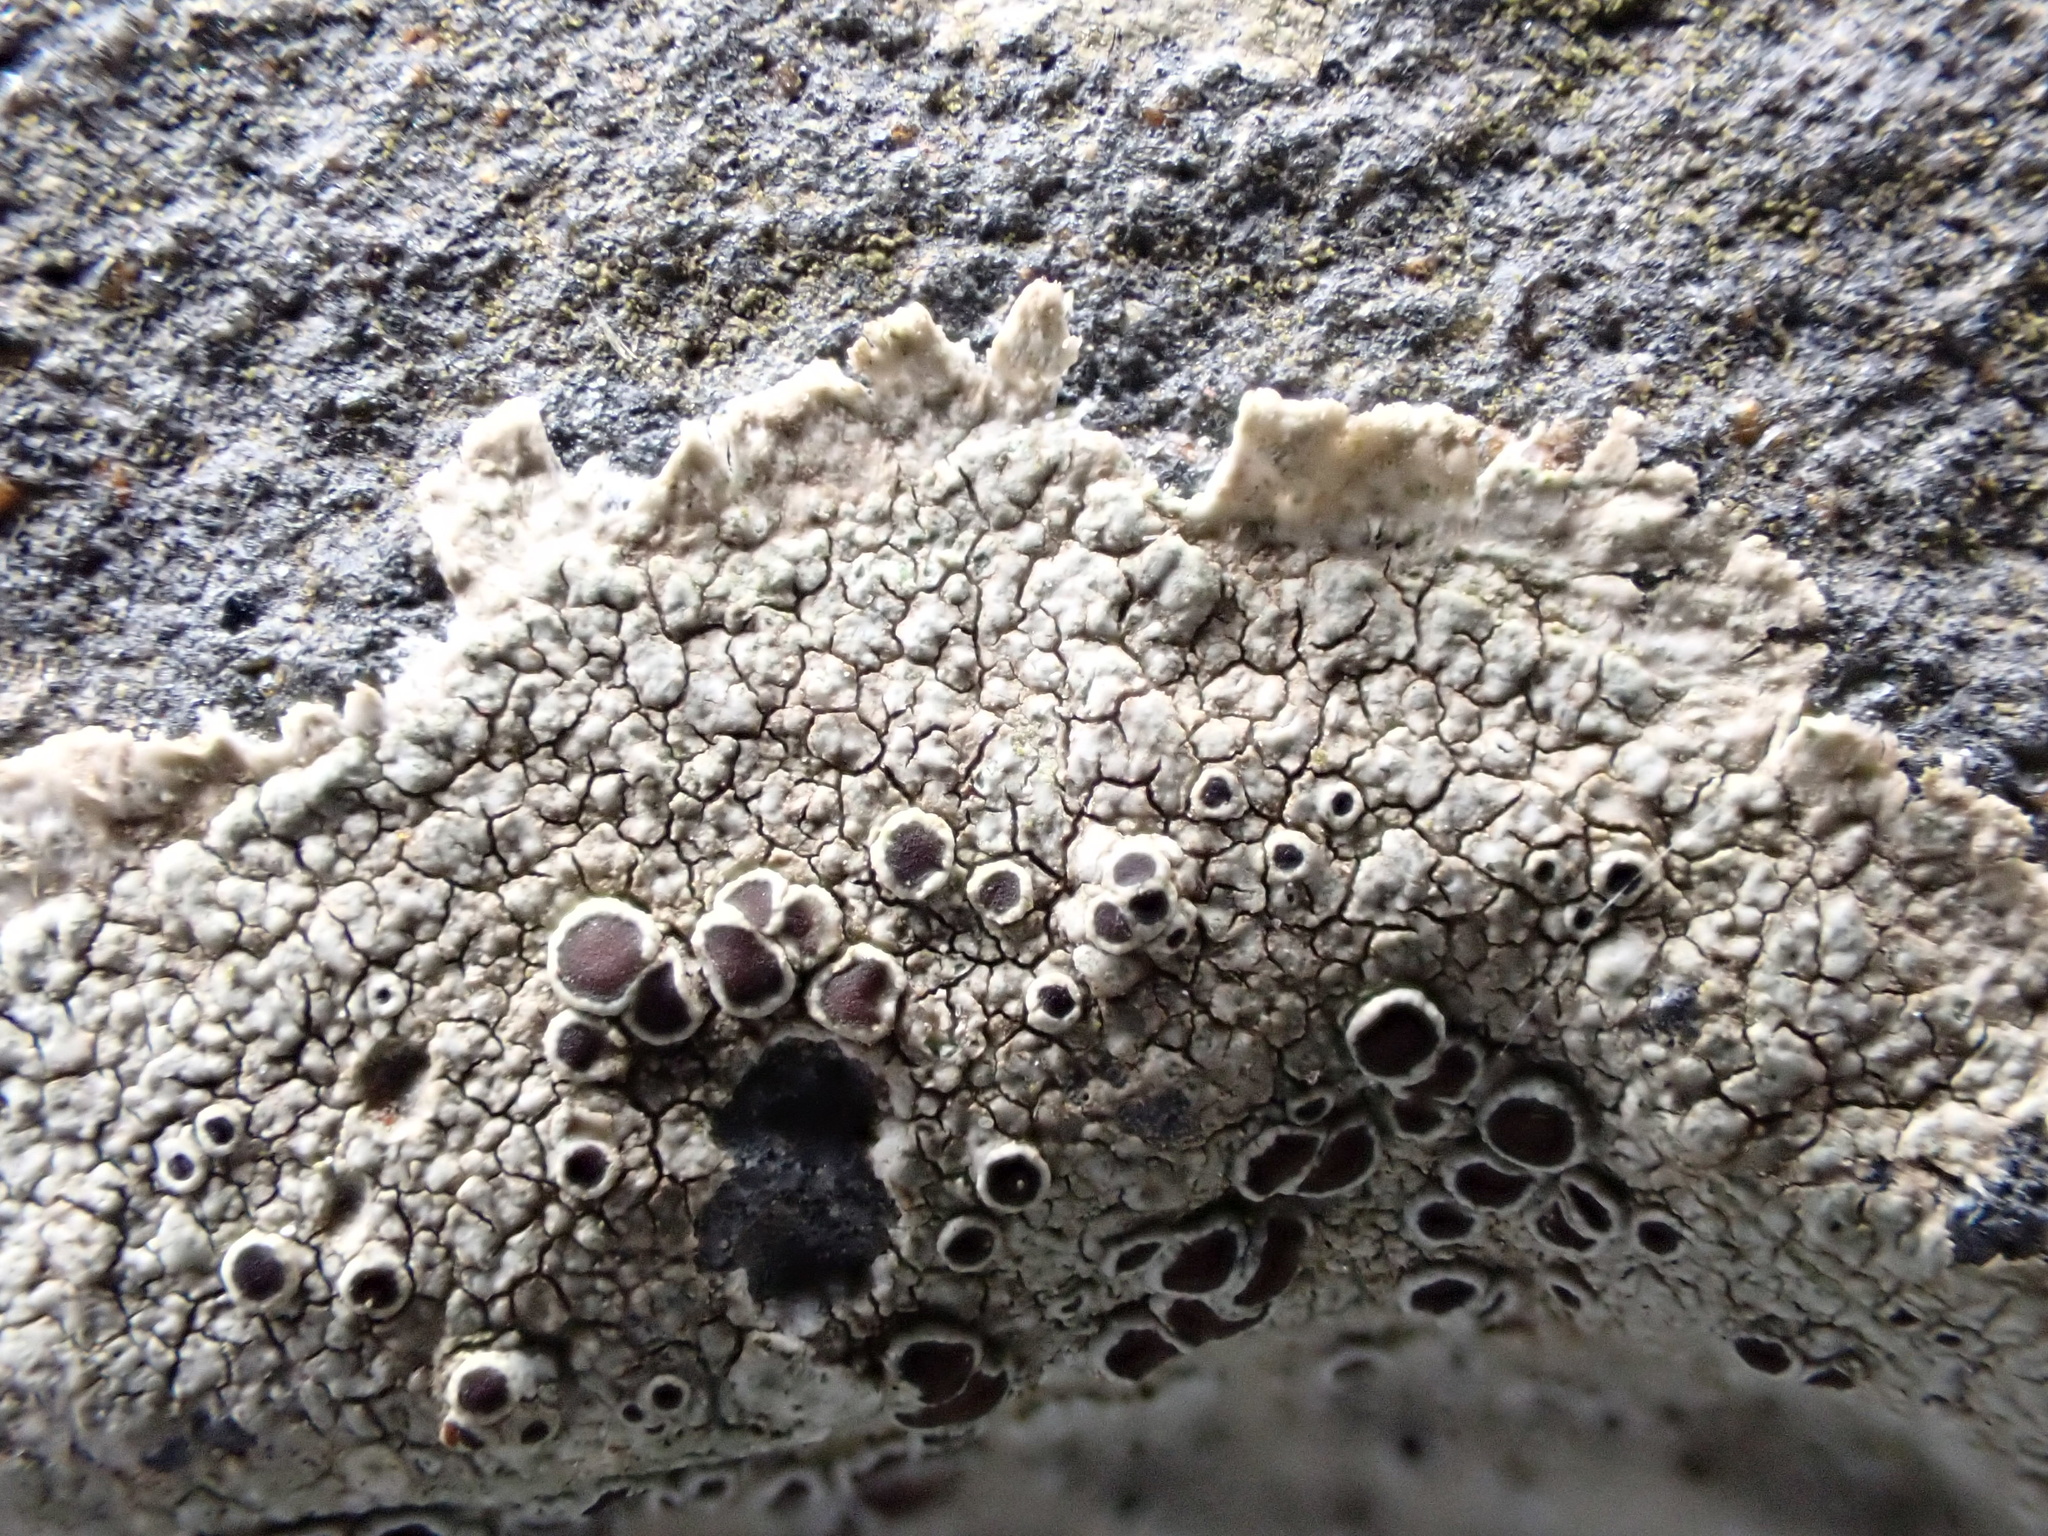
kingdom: Fungi
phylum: Ascomycota
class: Lecanoromycetes
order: Lecanorales
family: Lecanoraceae
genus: Lecanora
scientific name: Lecanora campestris
